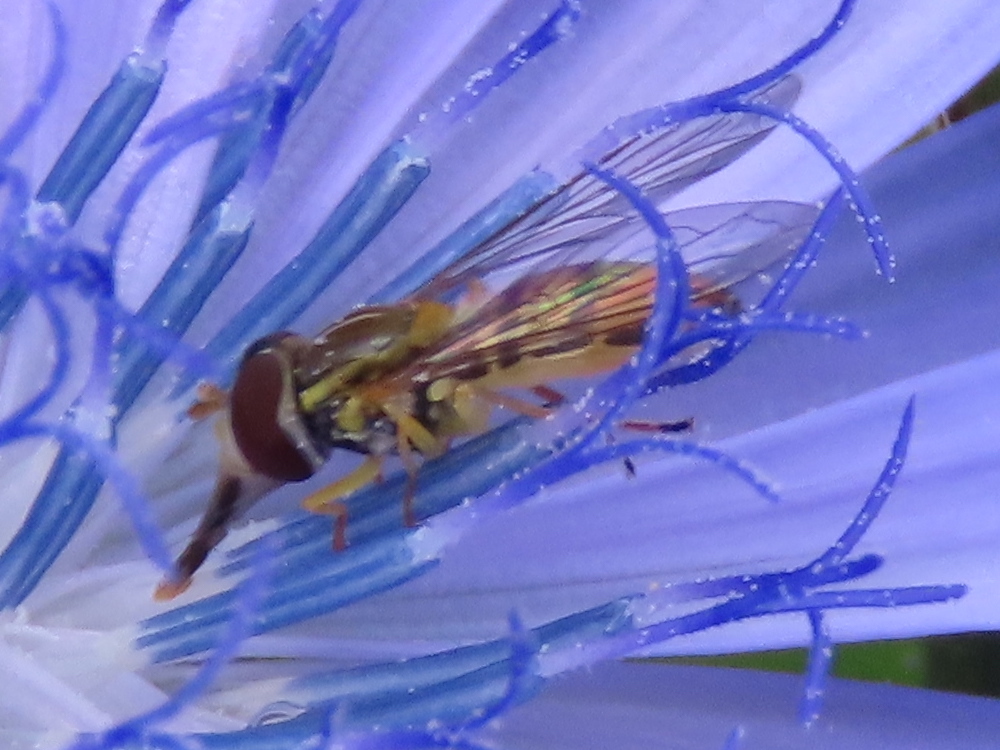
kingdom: Animalia
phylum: Arthropoda
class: Insecta
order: Diptera
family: Syrphidae
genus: Toxomerus
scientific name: Toxomerus marginatus
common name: Syrphid fly
